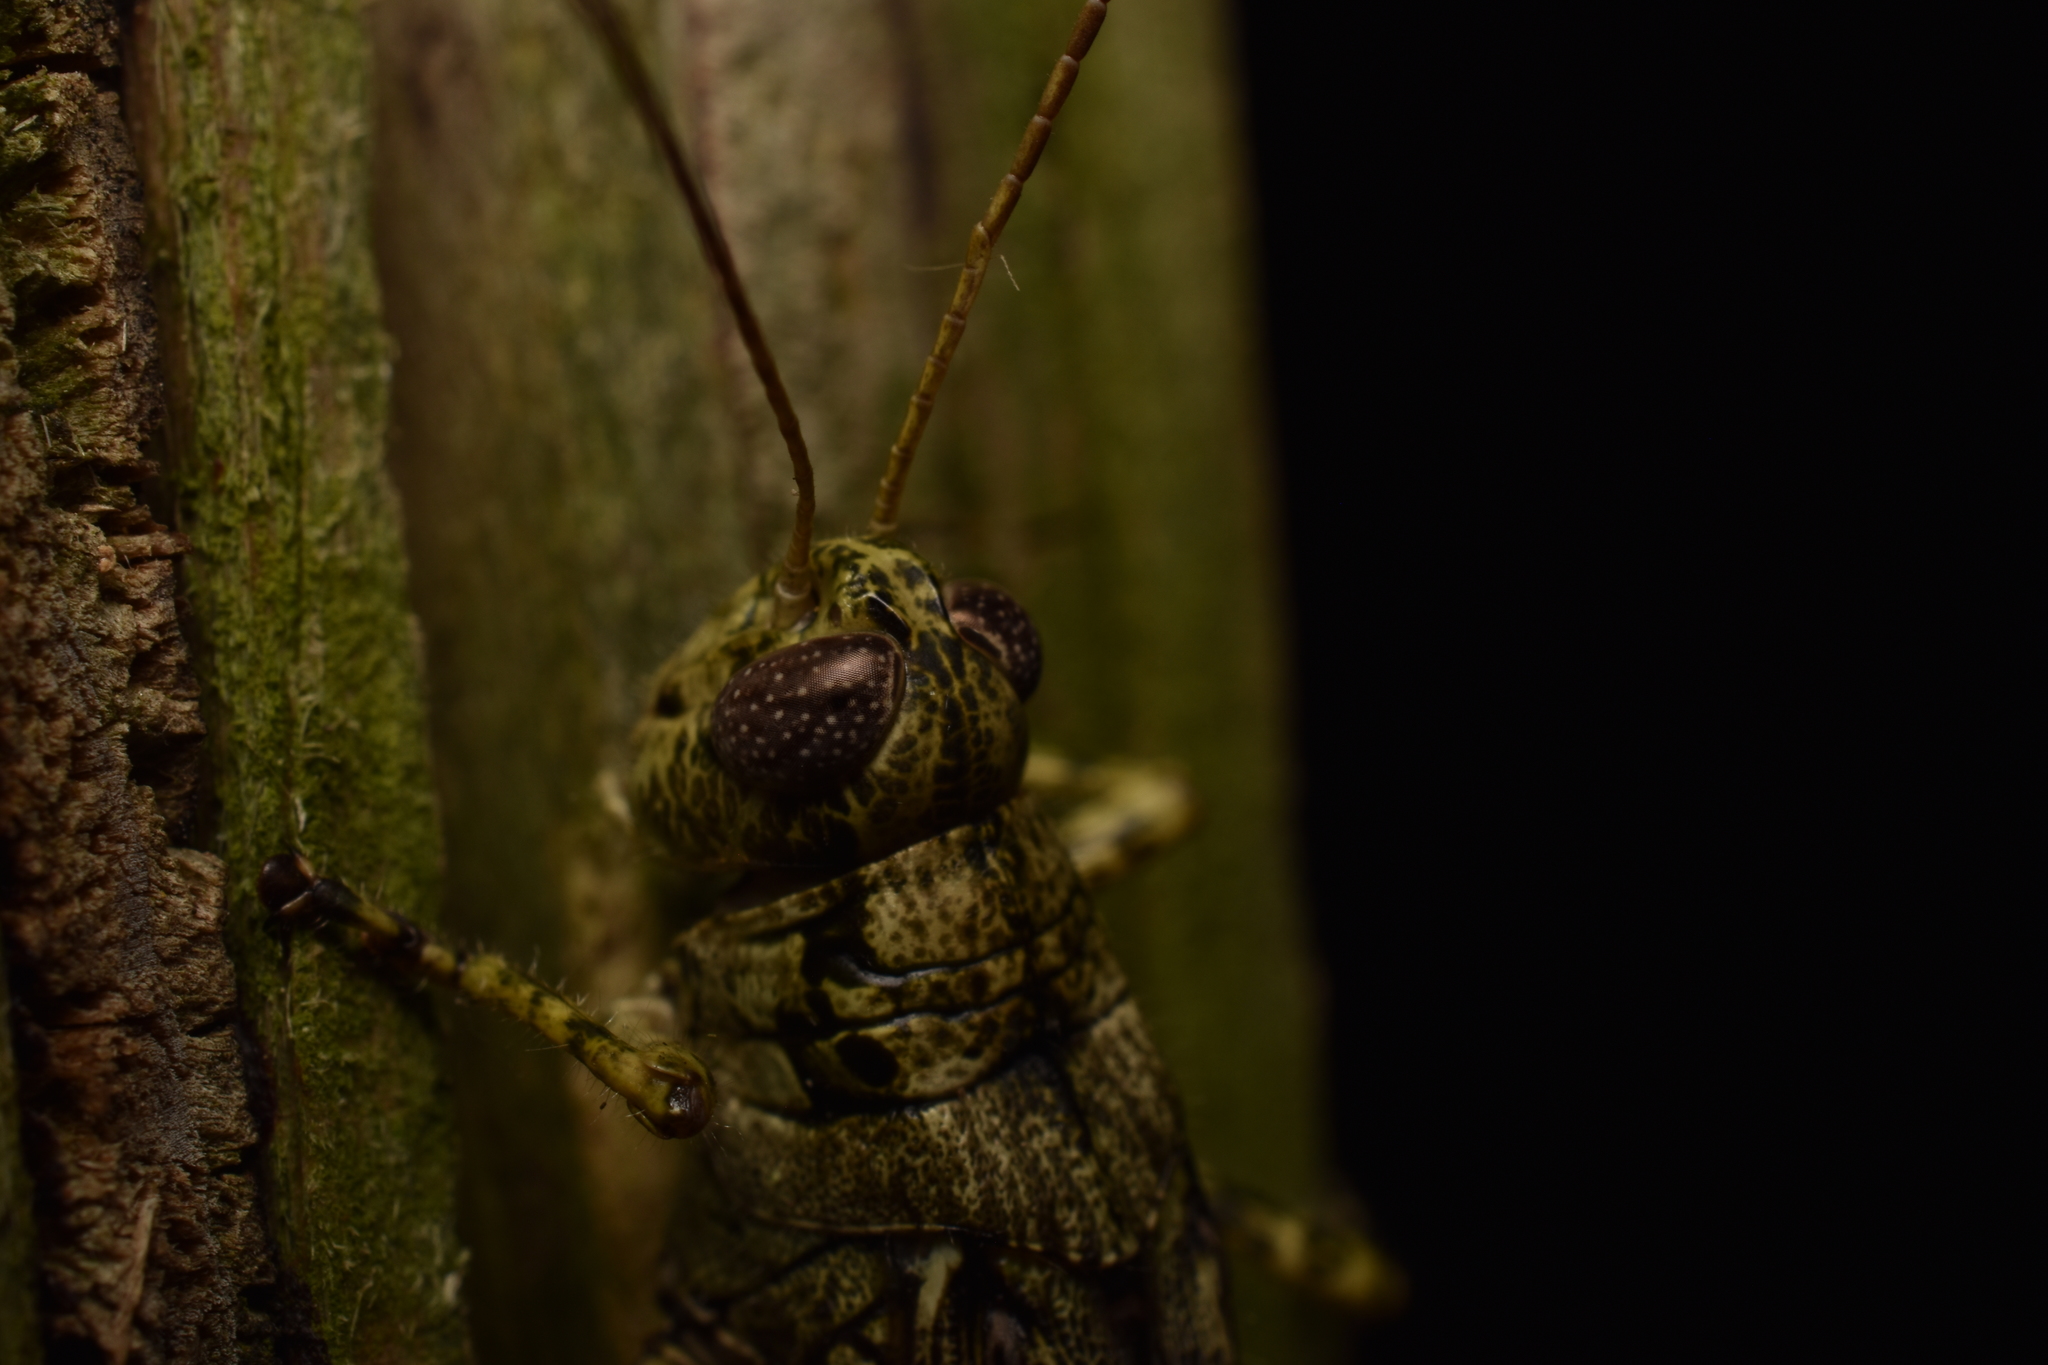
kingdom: Animalia
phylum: Arthropoda
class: Insecta
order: Orthoptera
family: Acrididae
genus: Melanoplus
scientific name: Melanoplus punctulatus
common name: Pine-tree spur-throat grasshopper
